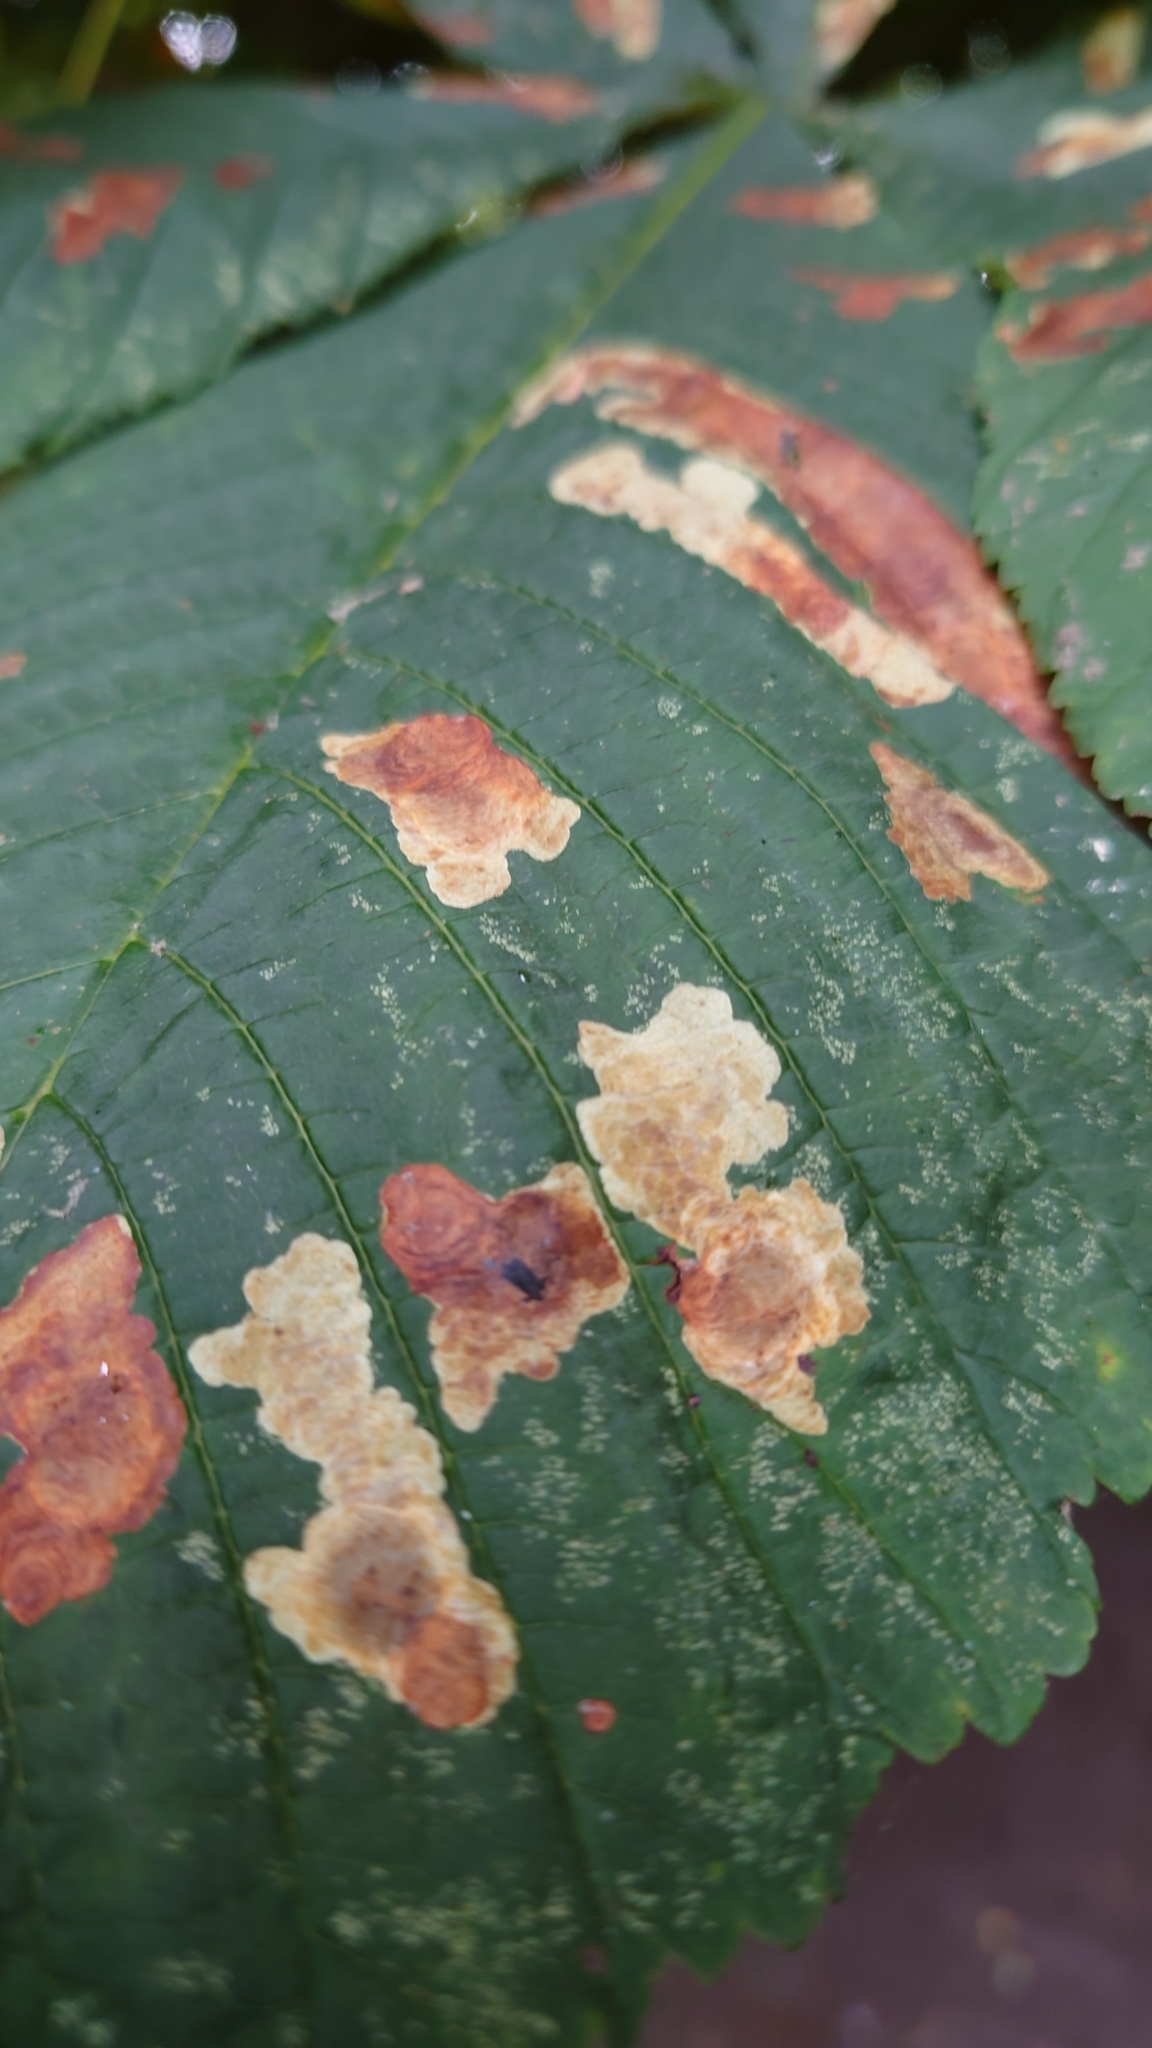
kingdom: Animalia
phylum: Arthropoda
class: Insecta
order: Lepidoptera
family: Gracillariidae
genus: Cameraria
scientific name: Cameraria ohridella
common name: Horse-chestnut leaf-miner
